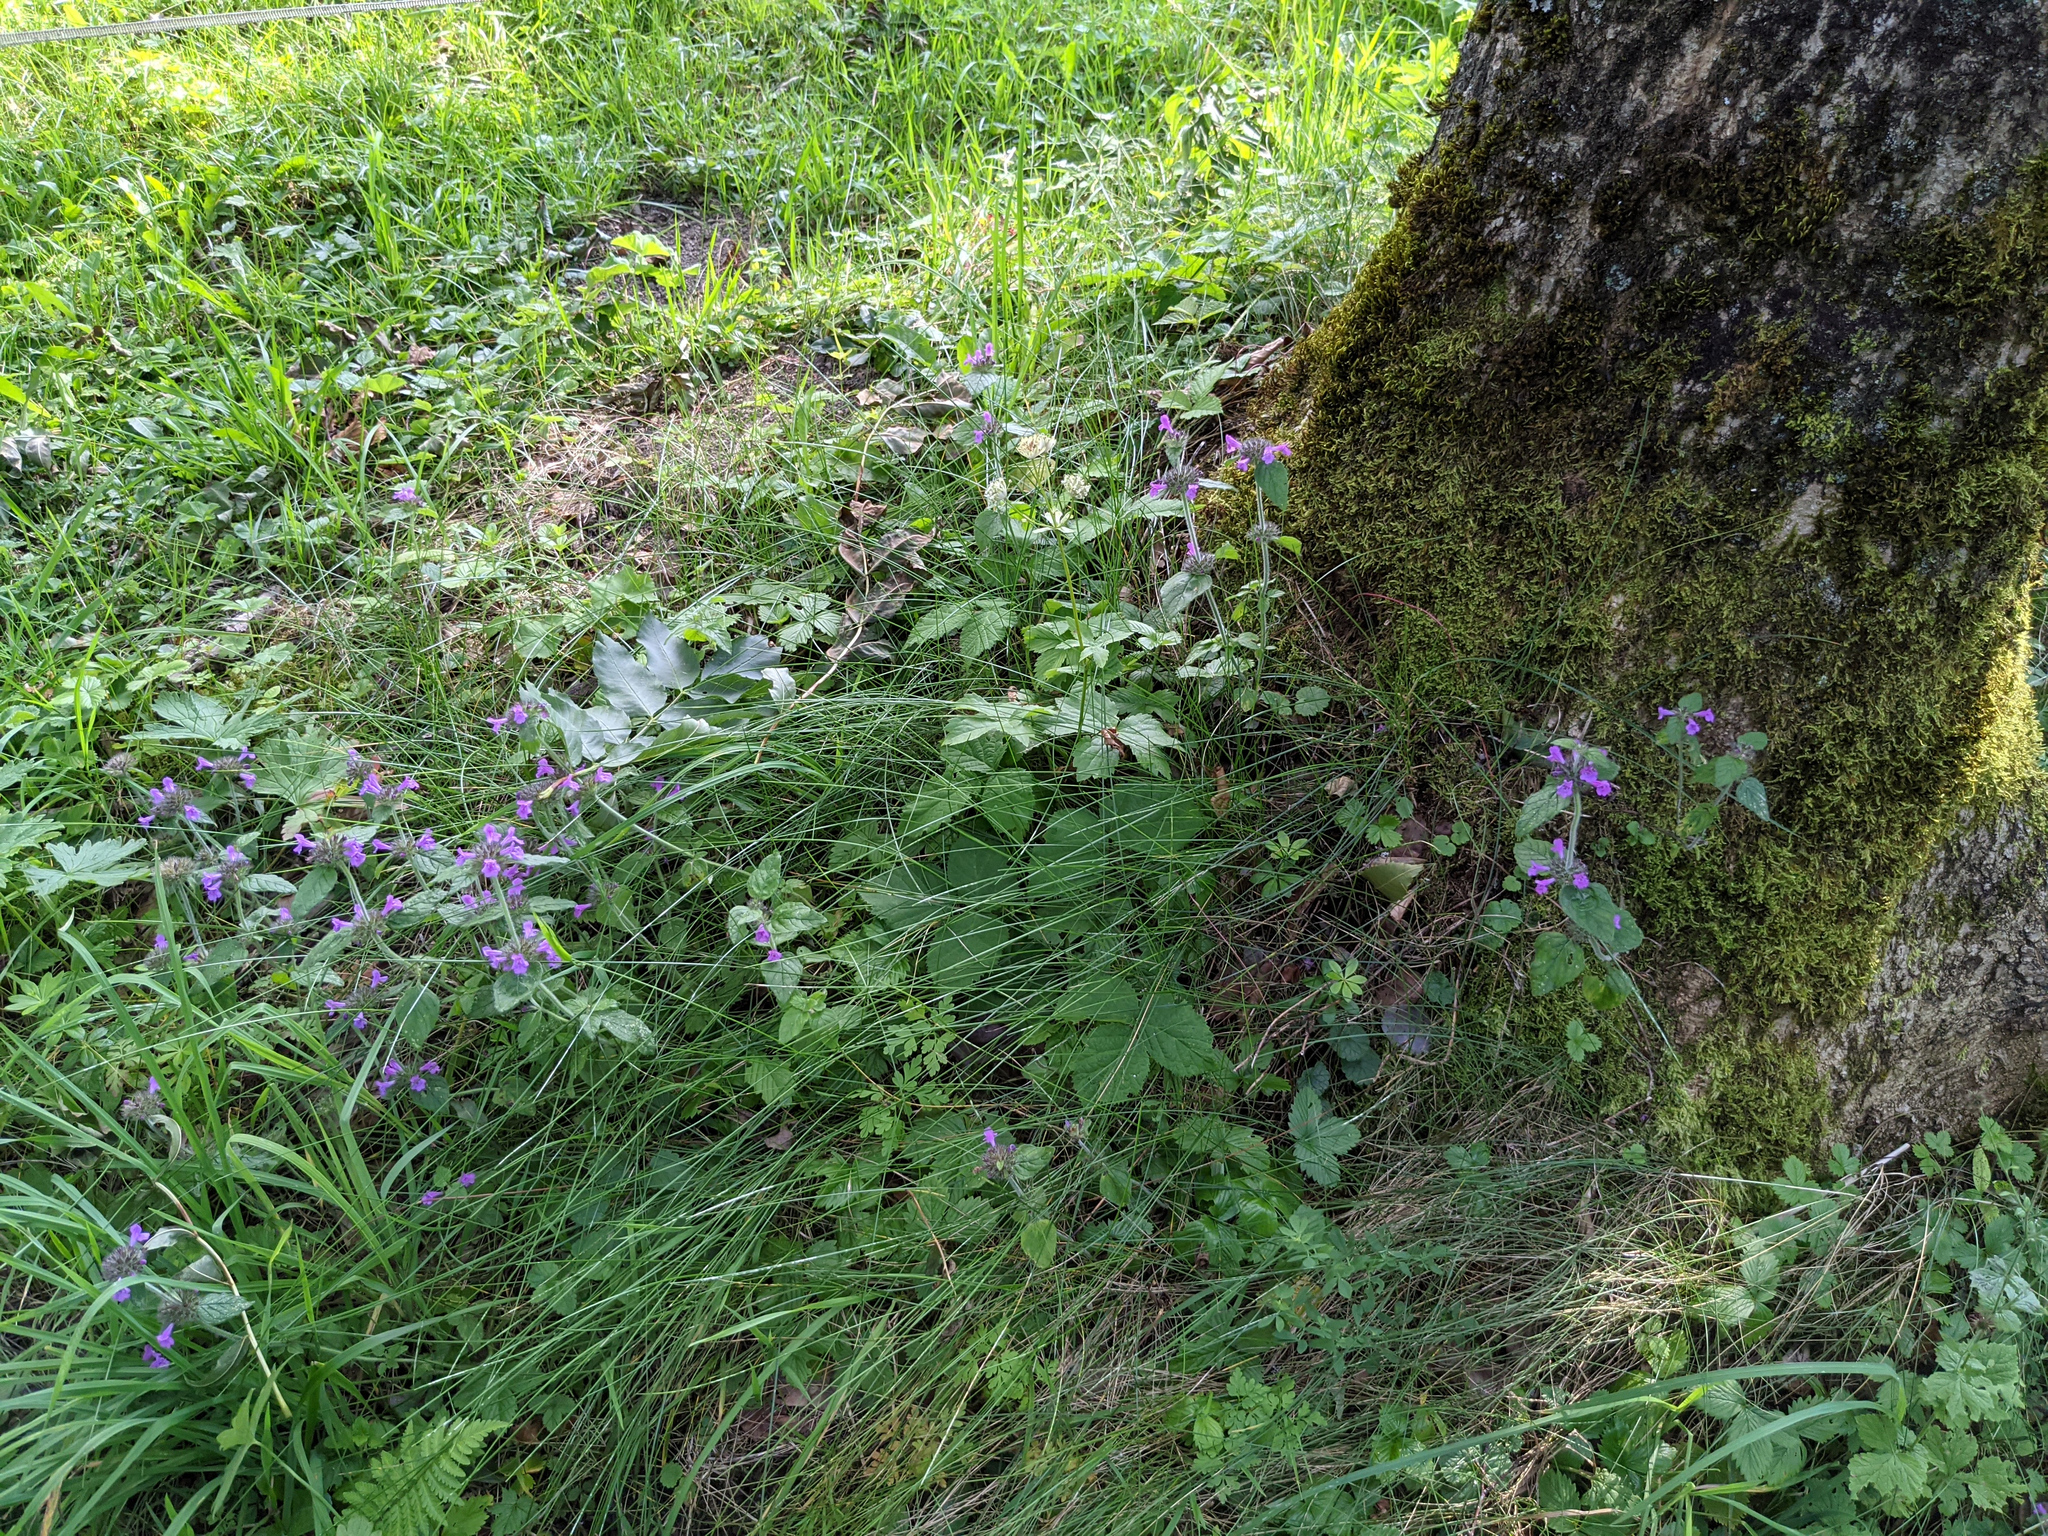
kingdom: Plantae
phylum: Tracheophyta
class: Magnoliopsida
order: Lamiales
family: Lamiaceae
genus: Clinopodium
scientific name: Clinopodium vulgare
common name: Wild basil
